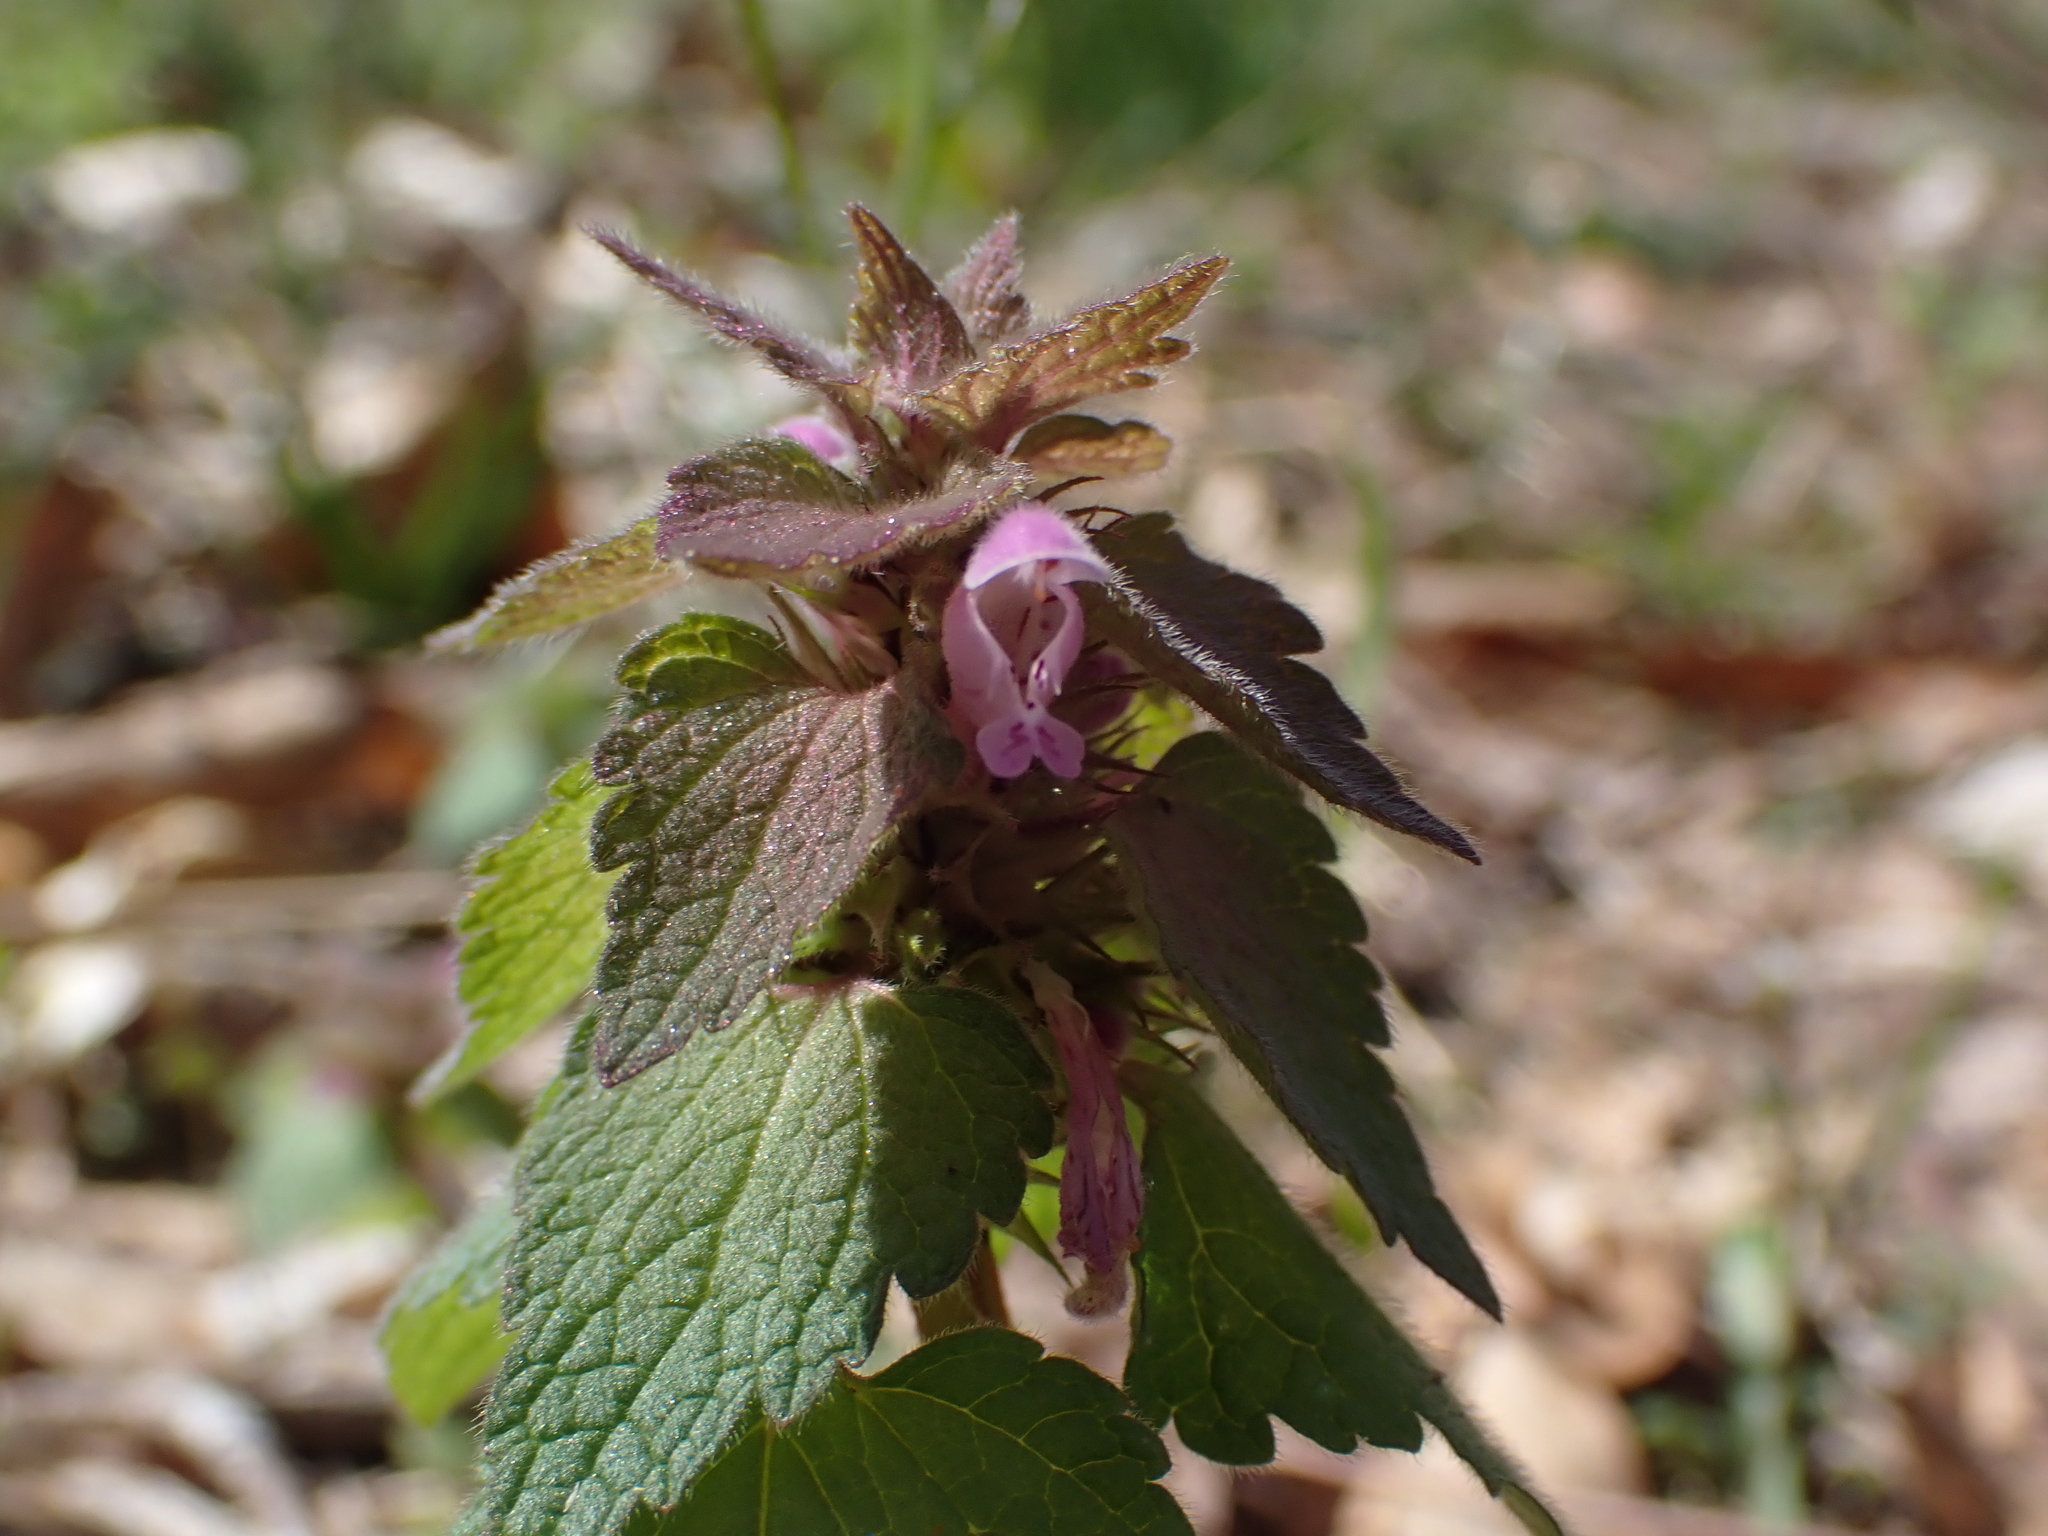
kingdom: Plantae
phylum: Tracheophyta
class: Magnoliopsida
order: Lamiales
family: Lamiaceae
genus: Lamium
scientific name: Lamium purpureum
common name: Red dead-nettle
